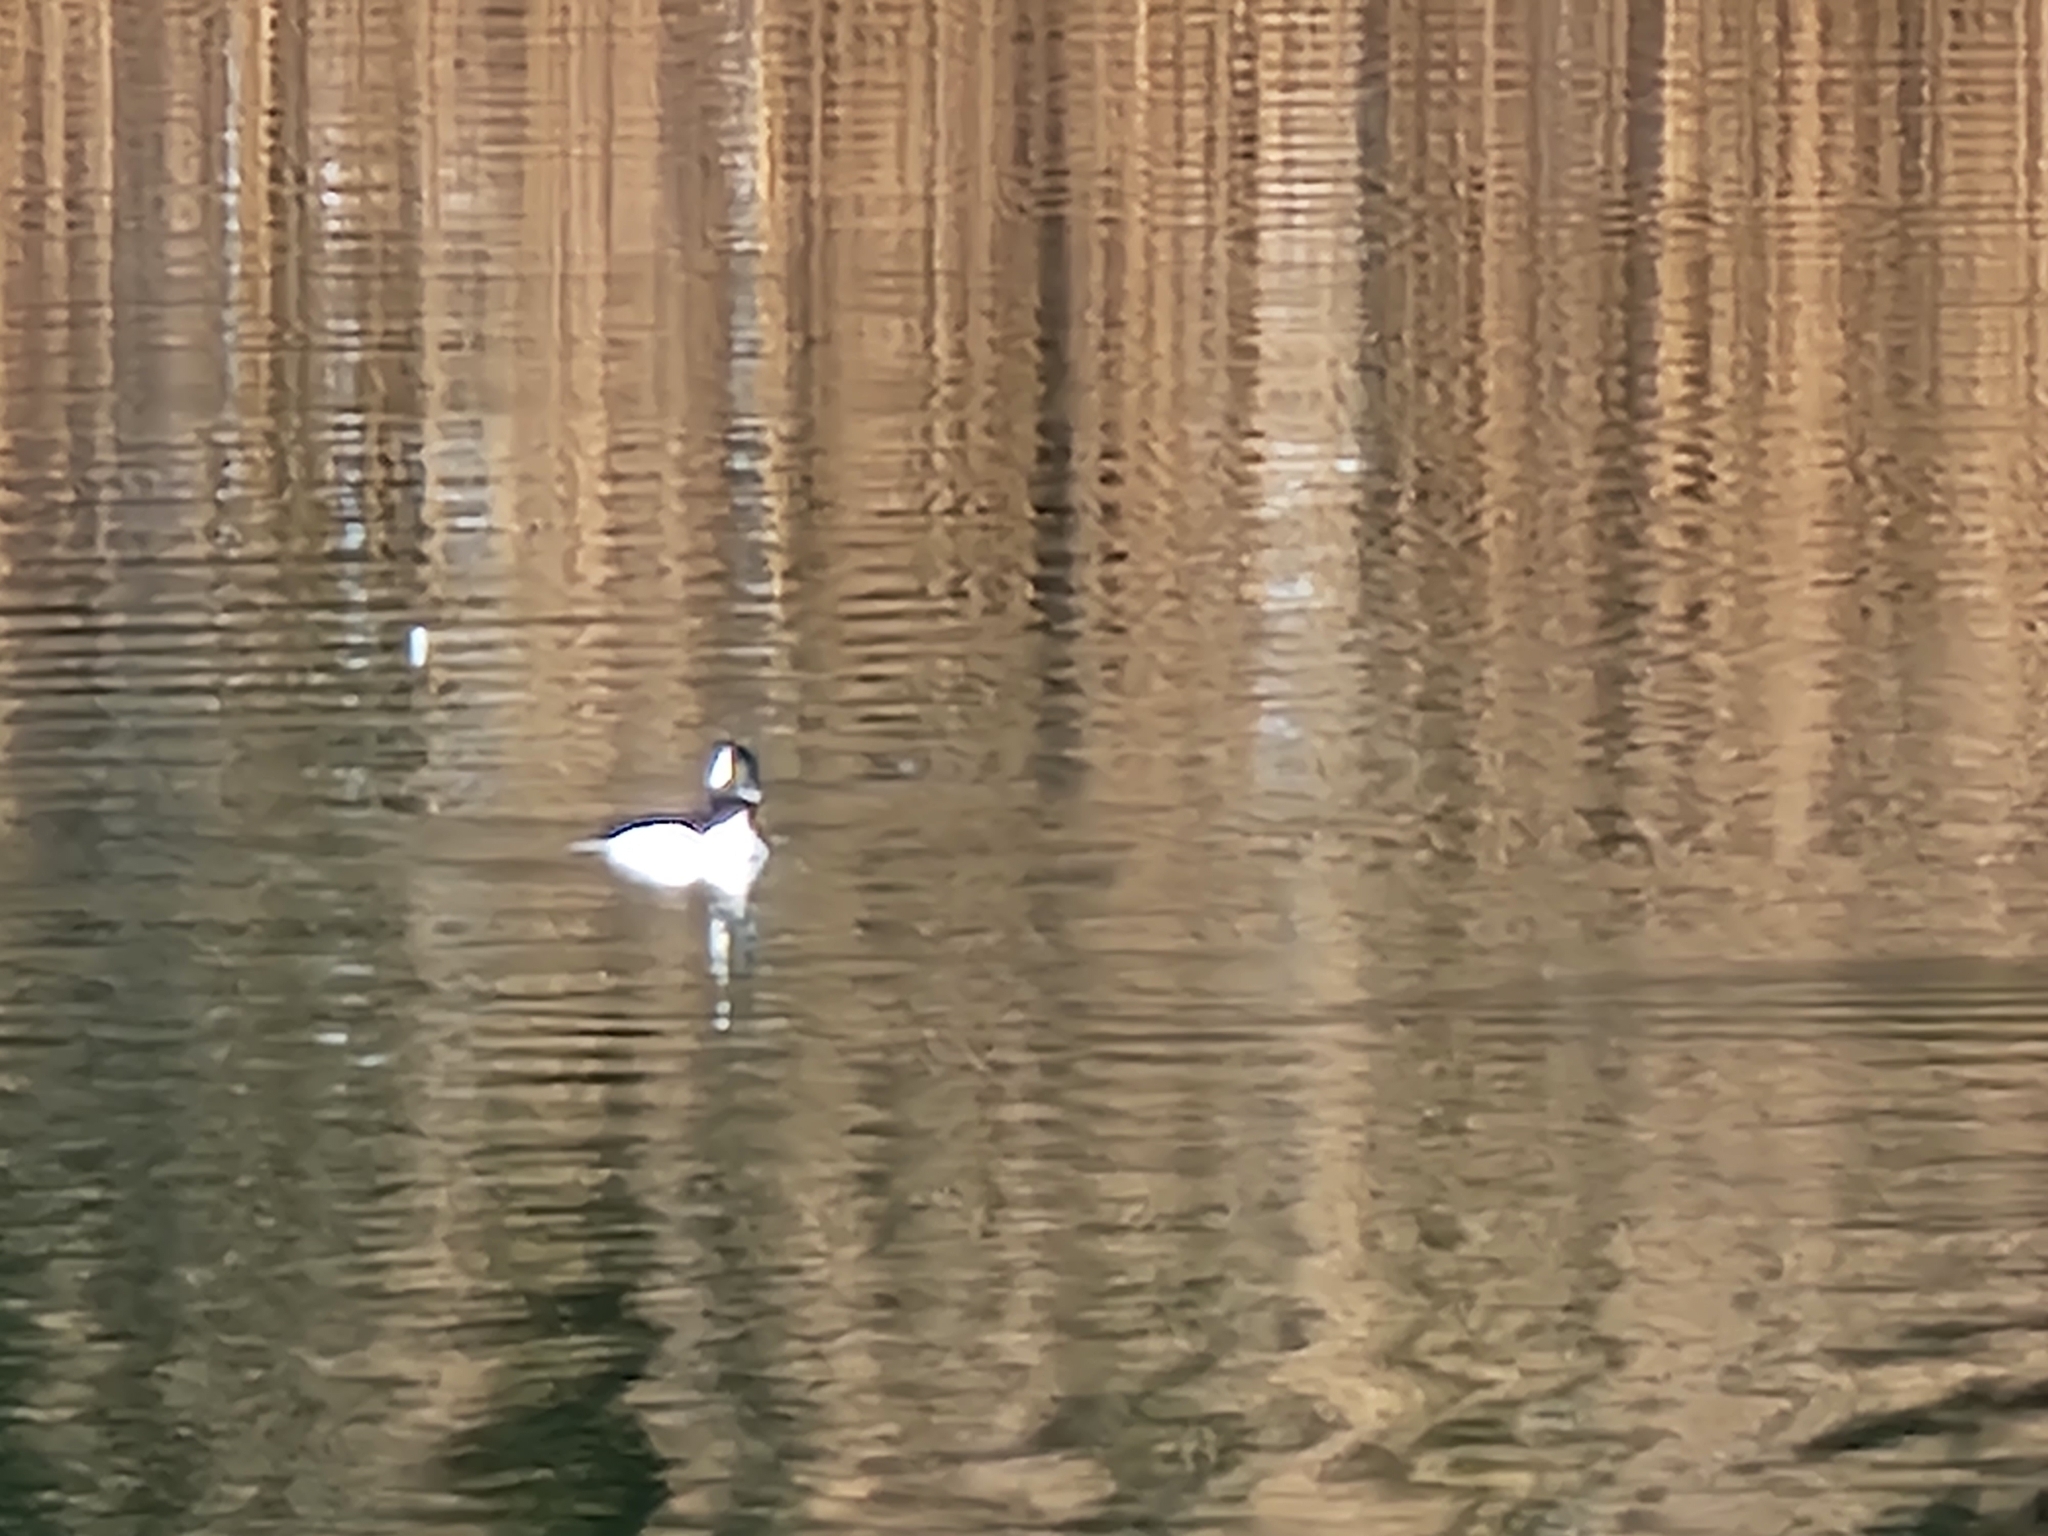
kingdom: Animalia
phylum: Chordata
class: Aves
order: Anseriformes
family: Anatidae
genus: Bucephala
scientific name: Bucephala albeola
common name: Bufflehead
